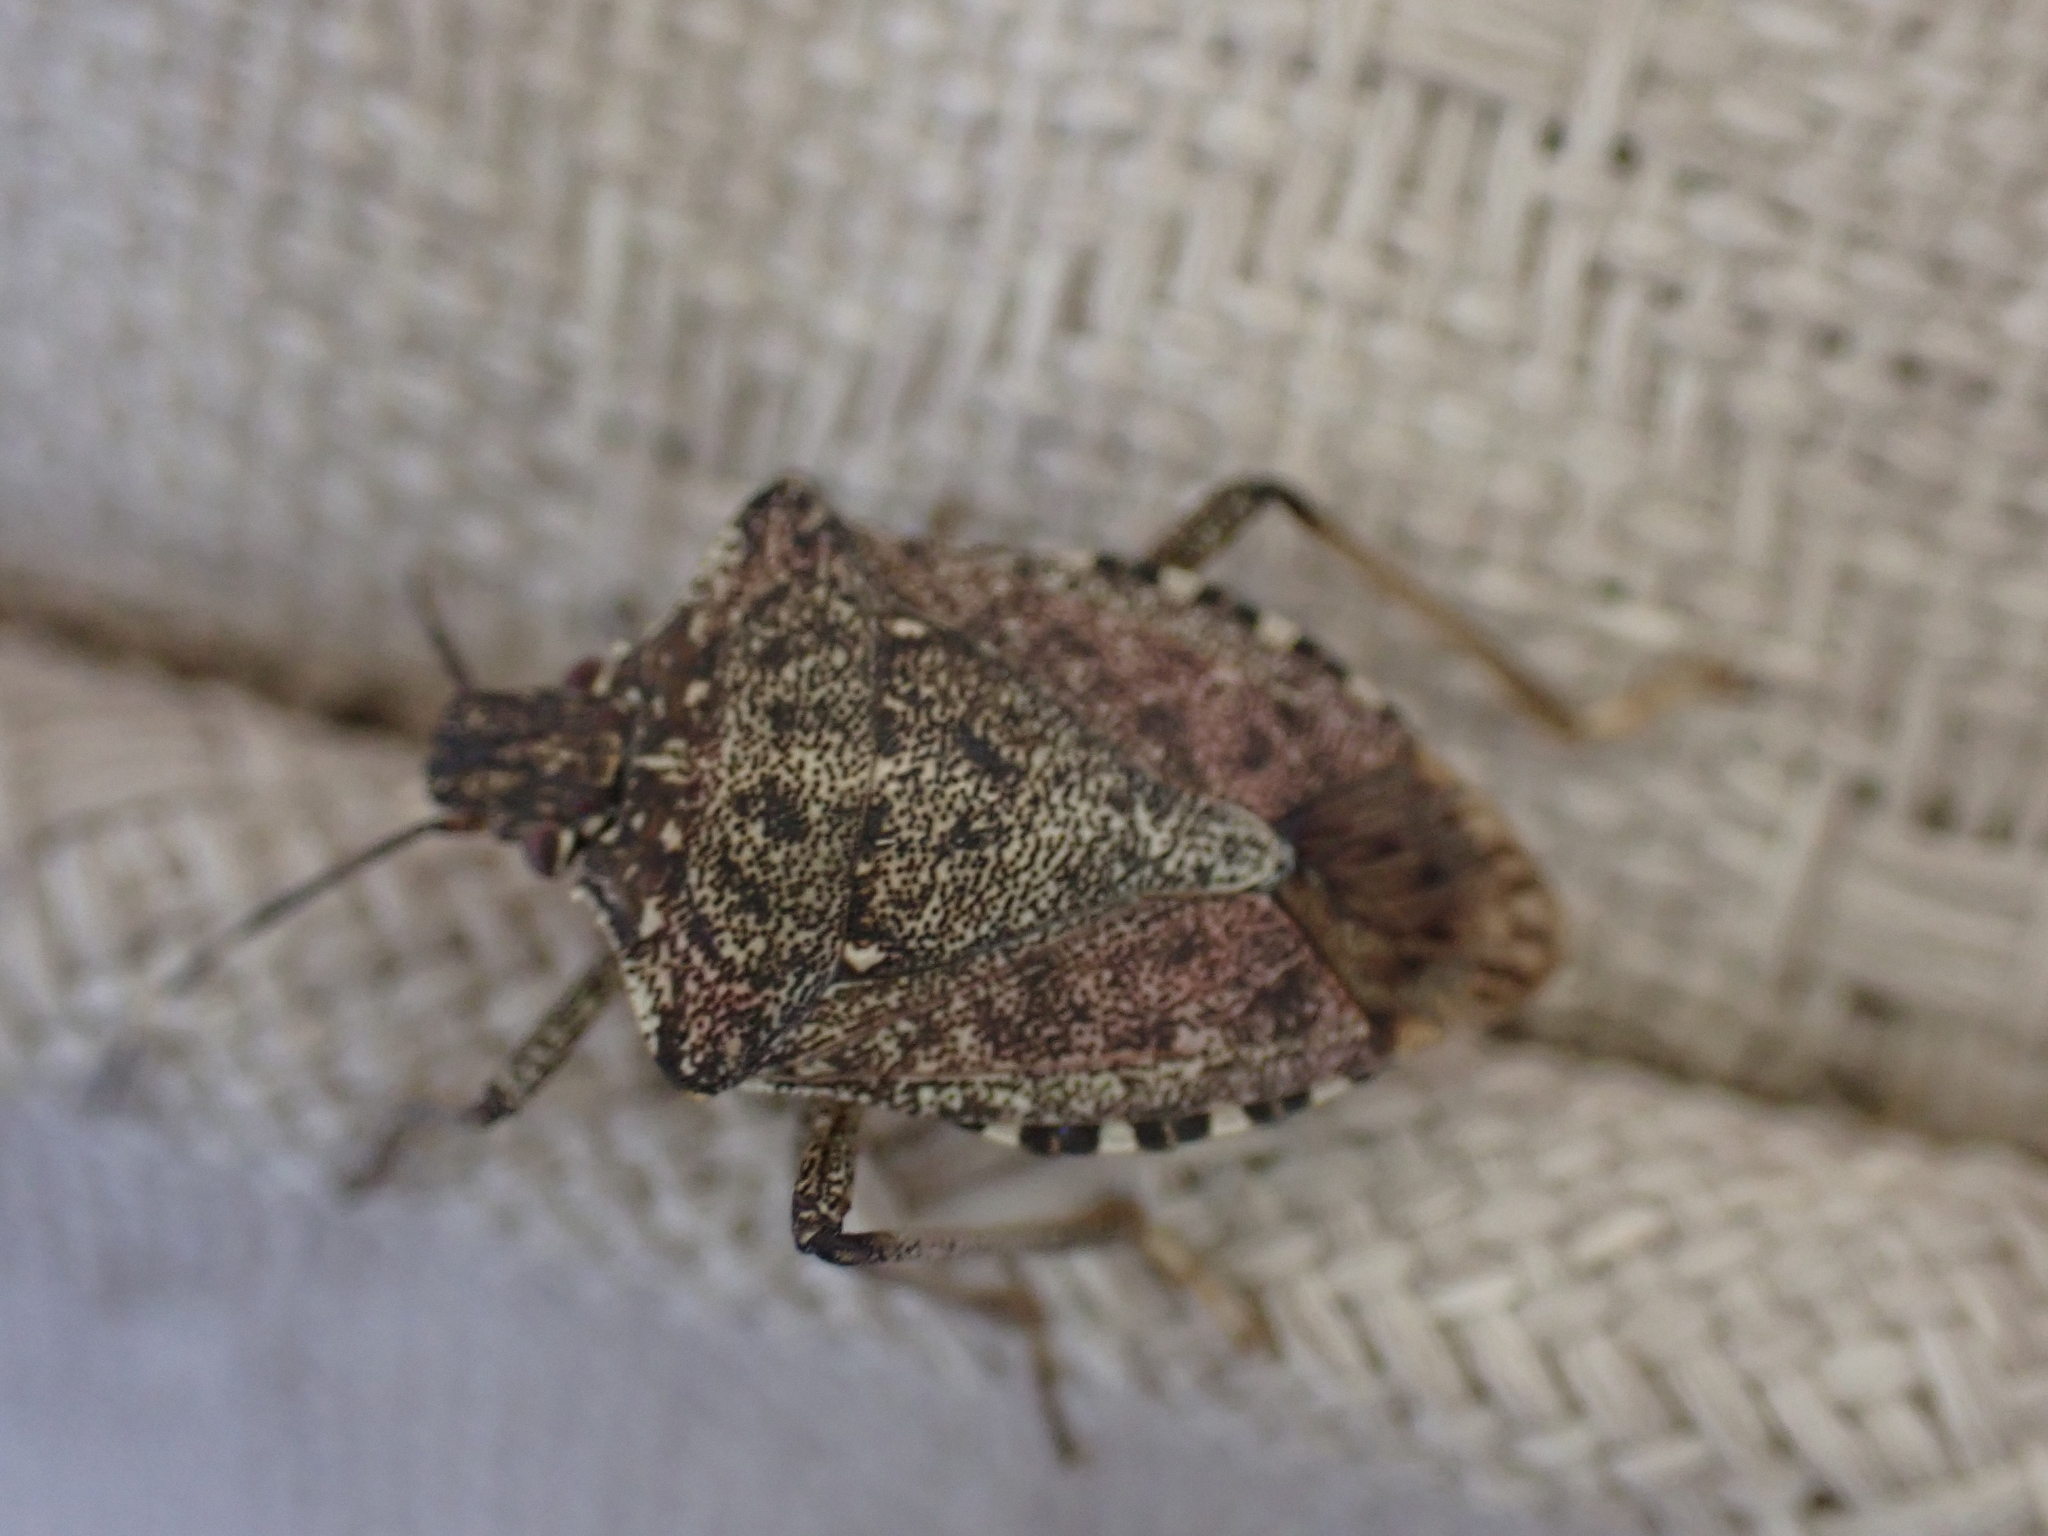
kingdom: Animalia
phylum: Arthropoda
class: Insecta
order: Hemiptera
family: Pentatomidae
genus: Halyomorpha
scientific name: Halyomorpha halys
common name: Brown marmorated stink bug
